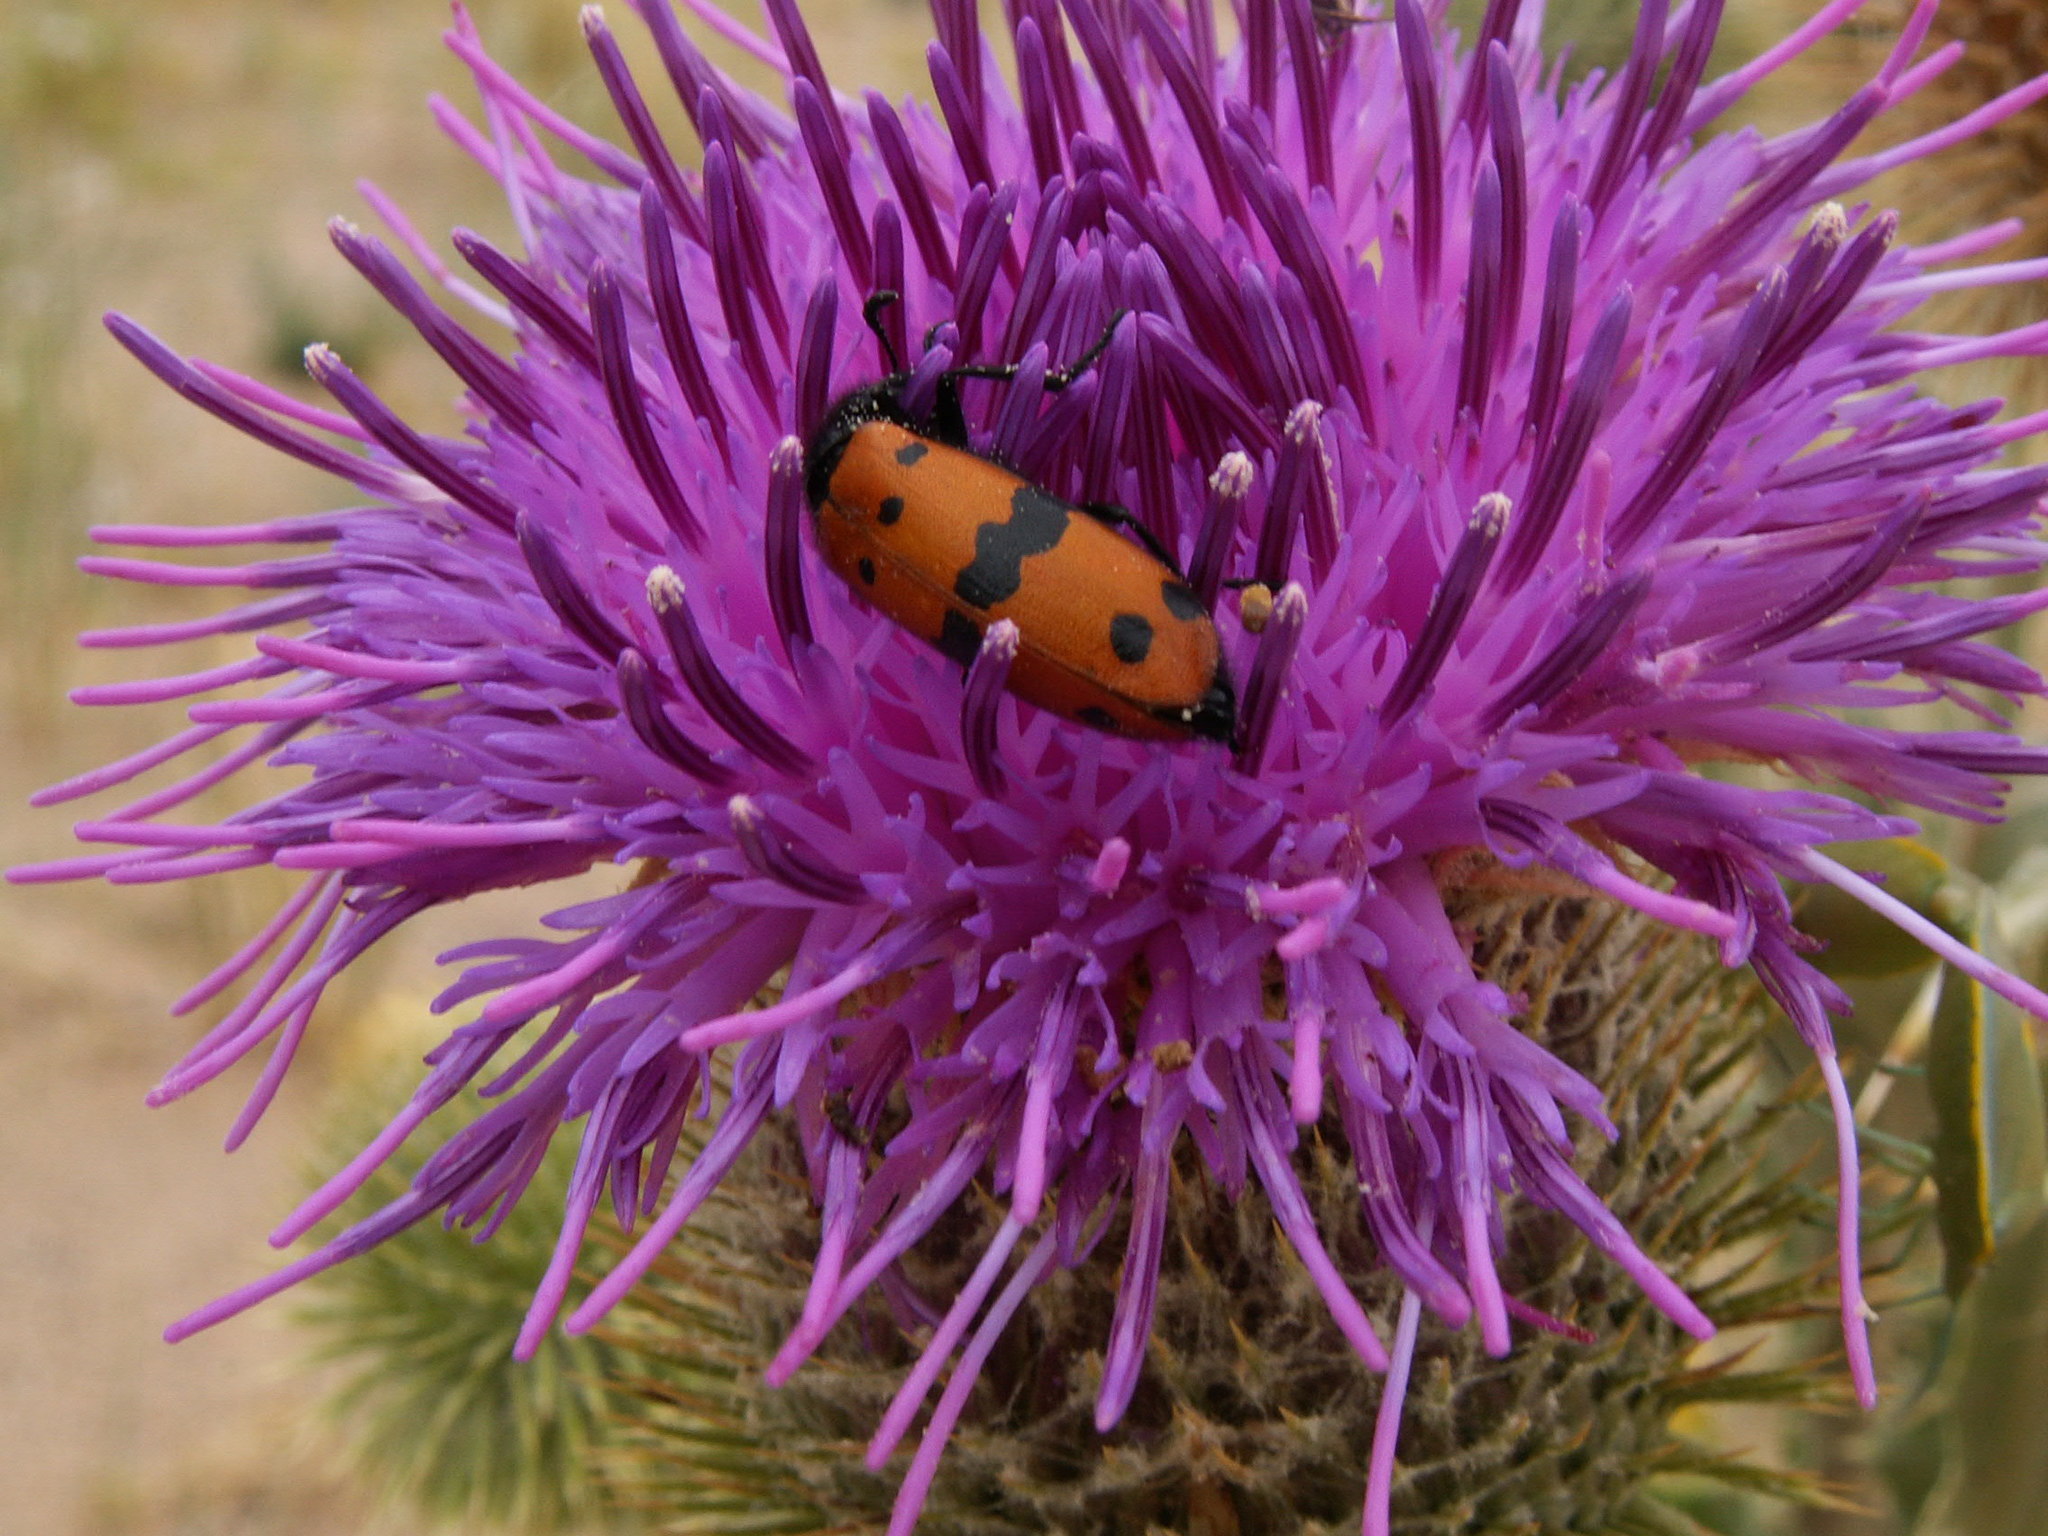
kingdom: Plantae
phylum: Tracheophyta
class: Magnoliopsida
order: Asterales
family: Asteraceae
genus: Olgaea
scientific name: Olgaea leucophylla
